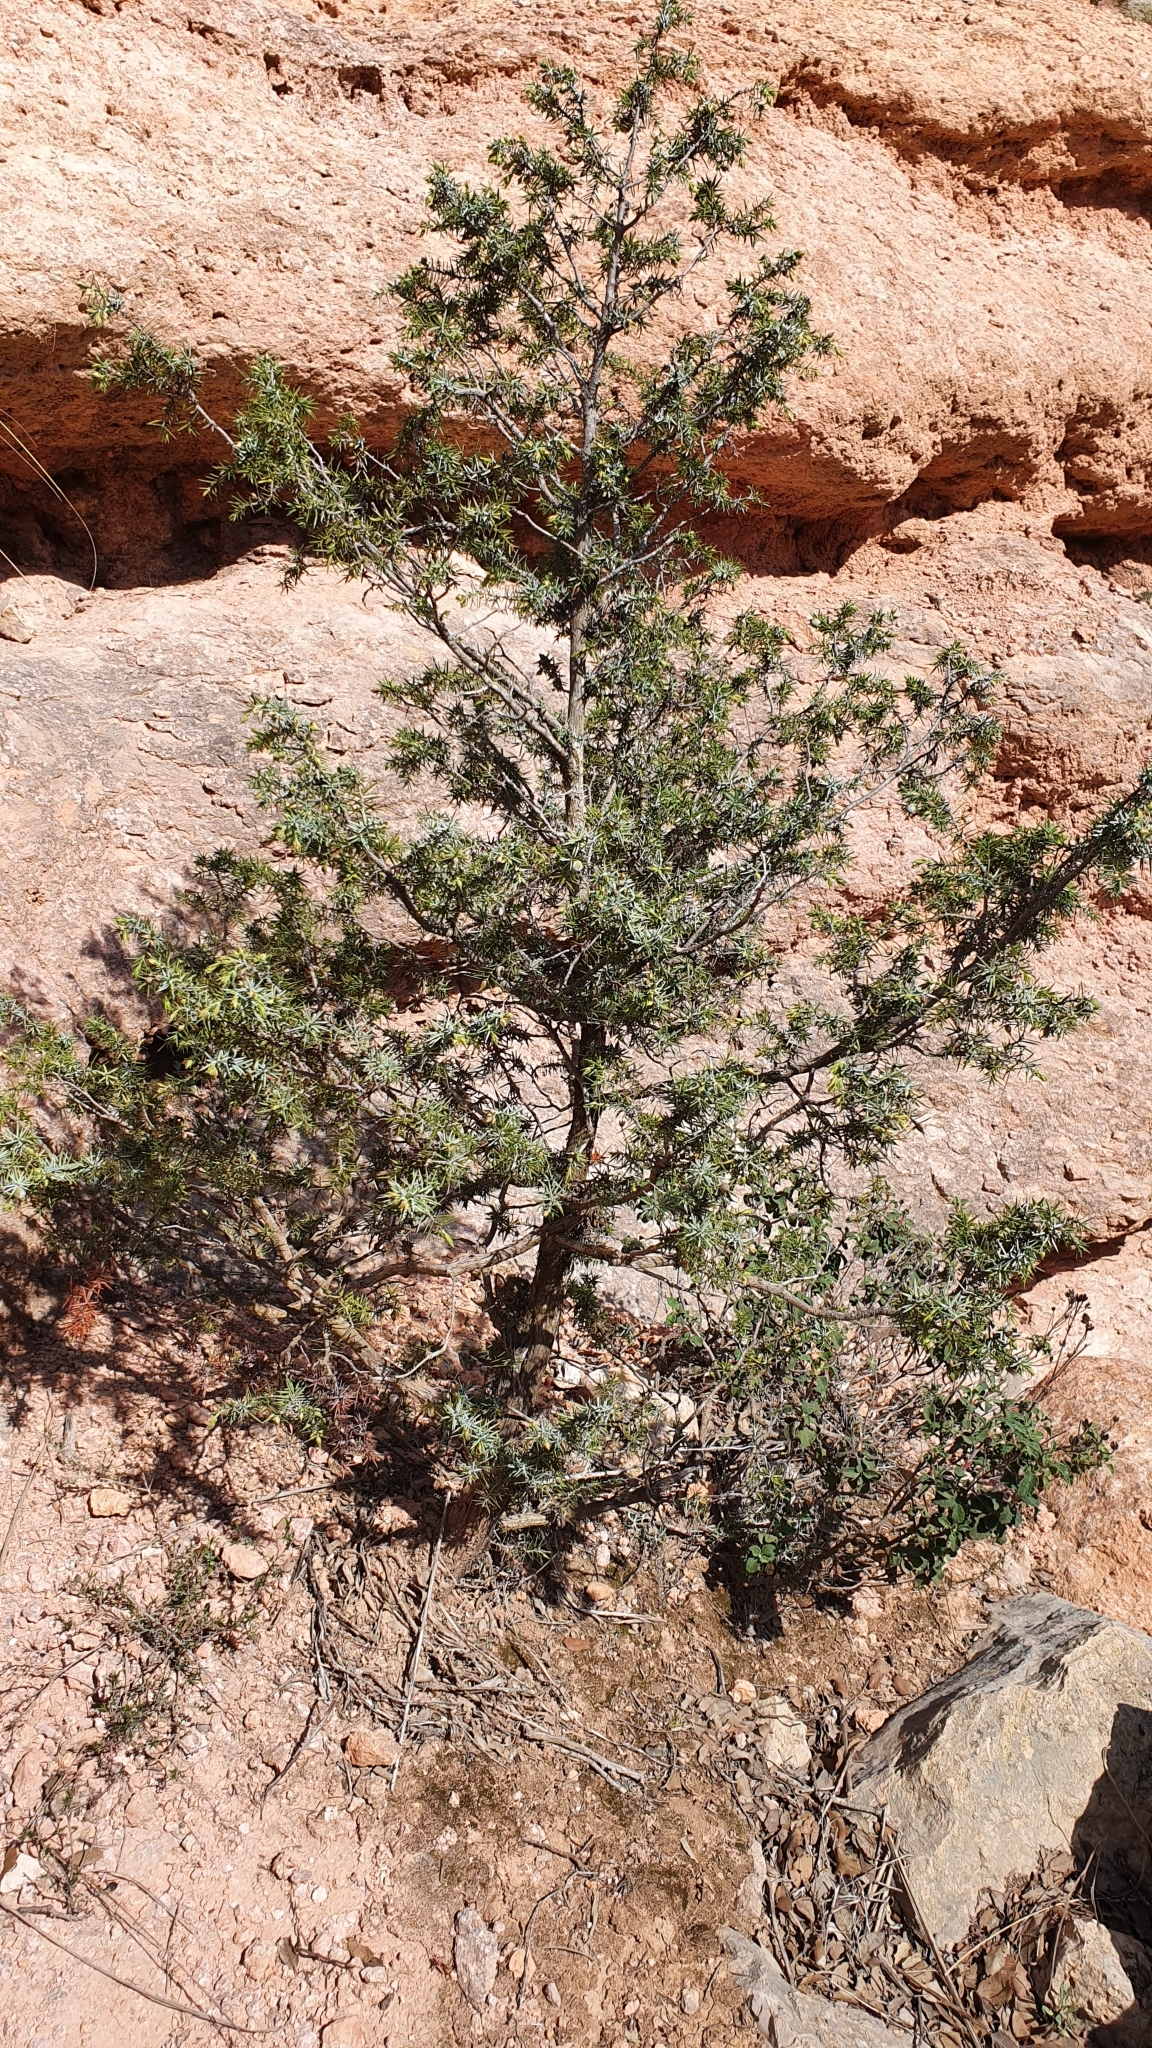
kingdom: Plantae
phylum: Tracheophyta
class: Pinopsida
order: Pinales
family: Cupressaceae
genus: Juniperus
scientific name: Juniperus oxycedrus
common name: Prickly juniper
